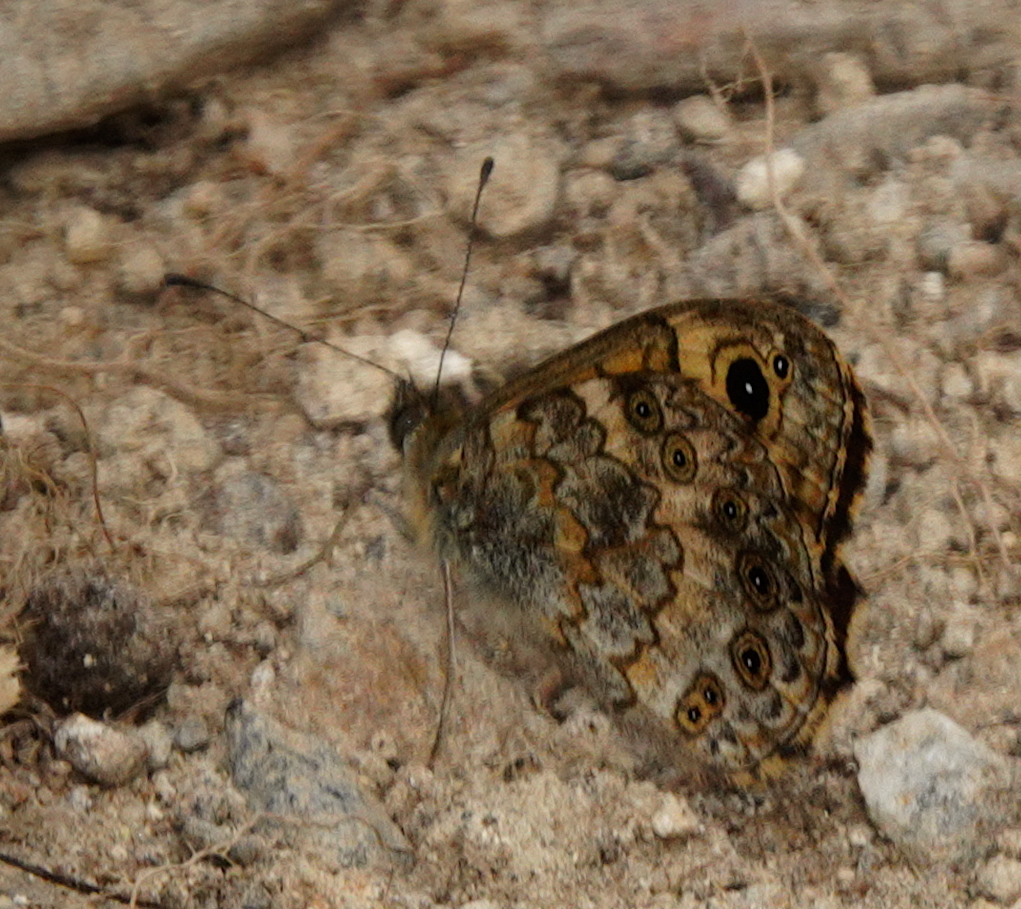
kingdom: Animalia
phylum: Arthropoda
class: Insecta
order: Lepidoptera
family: Nymphalidae
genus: Pararge
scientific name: Pararge Lasiommata megera
